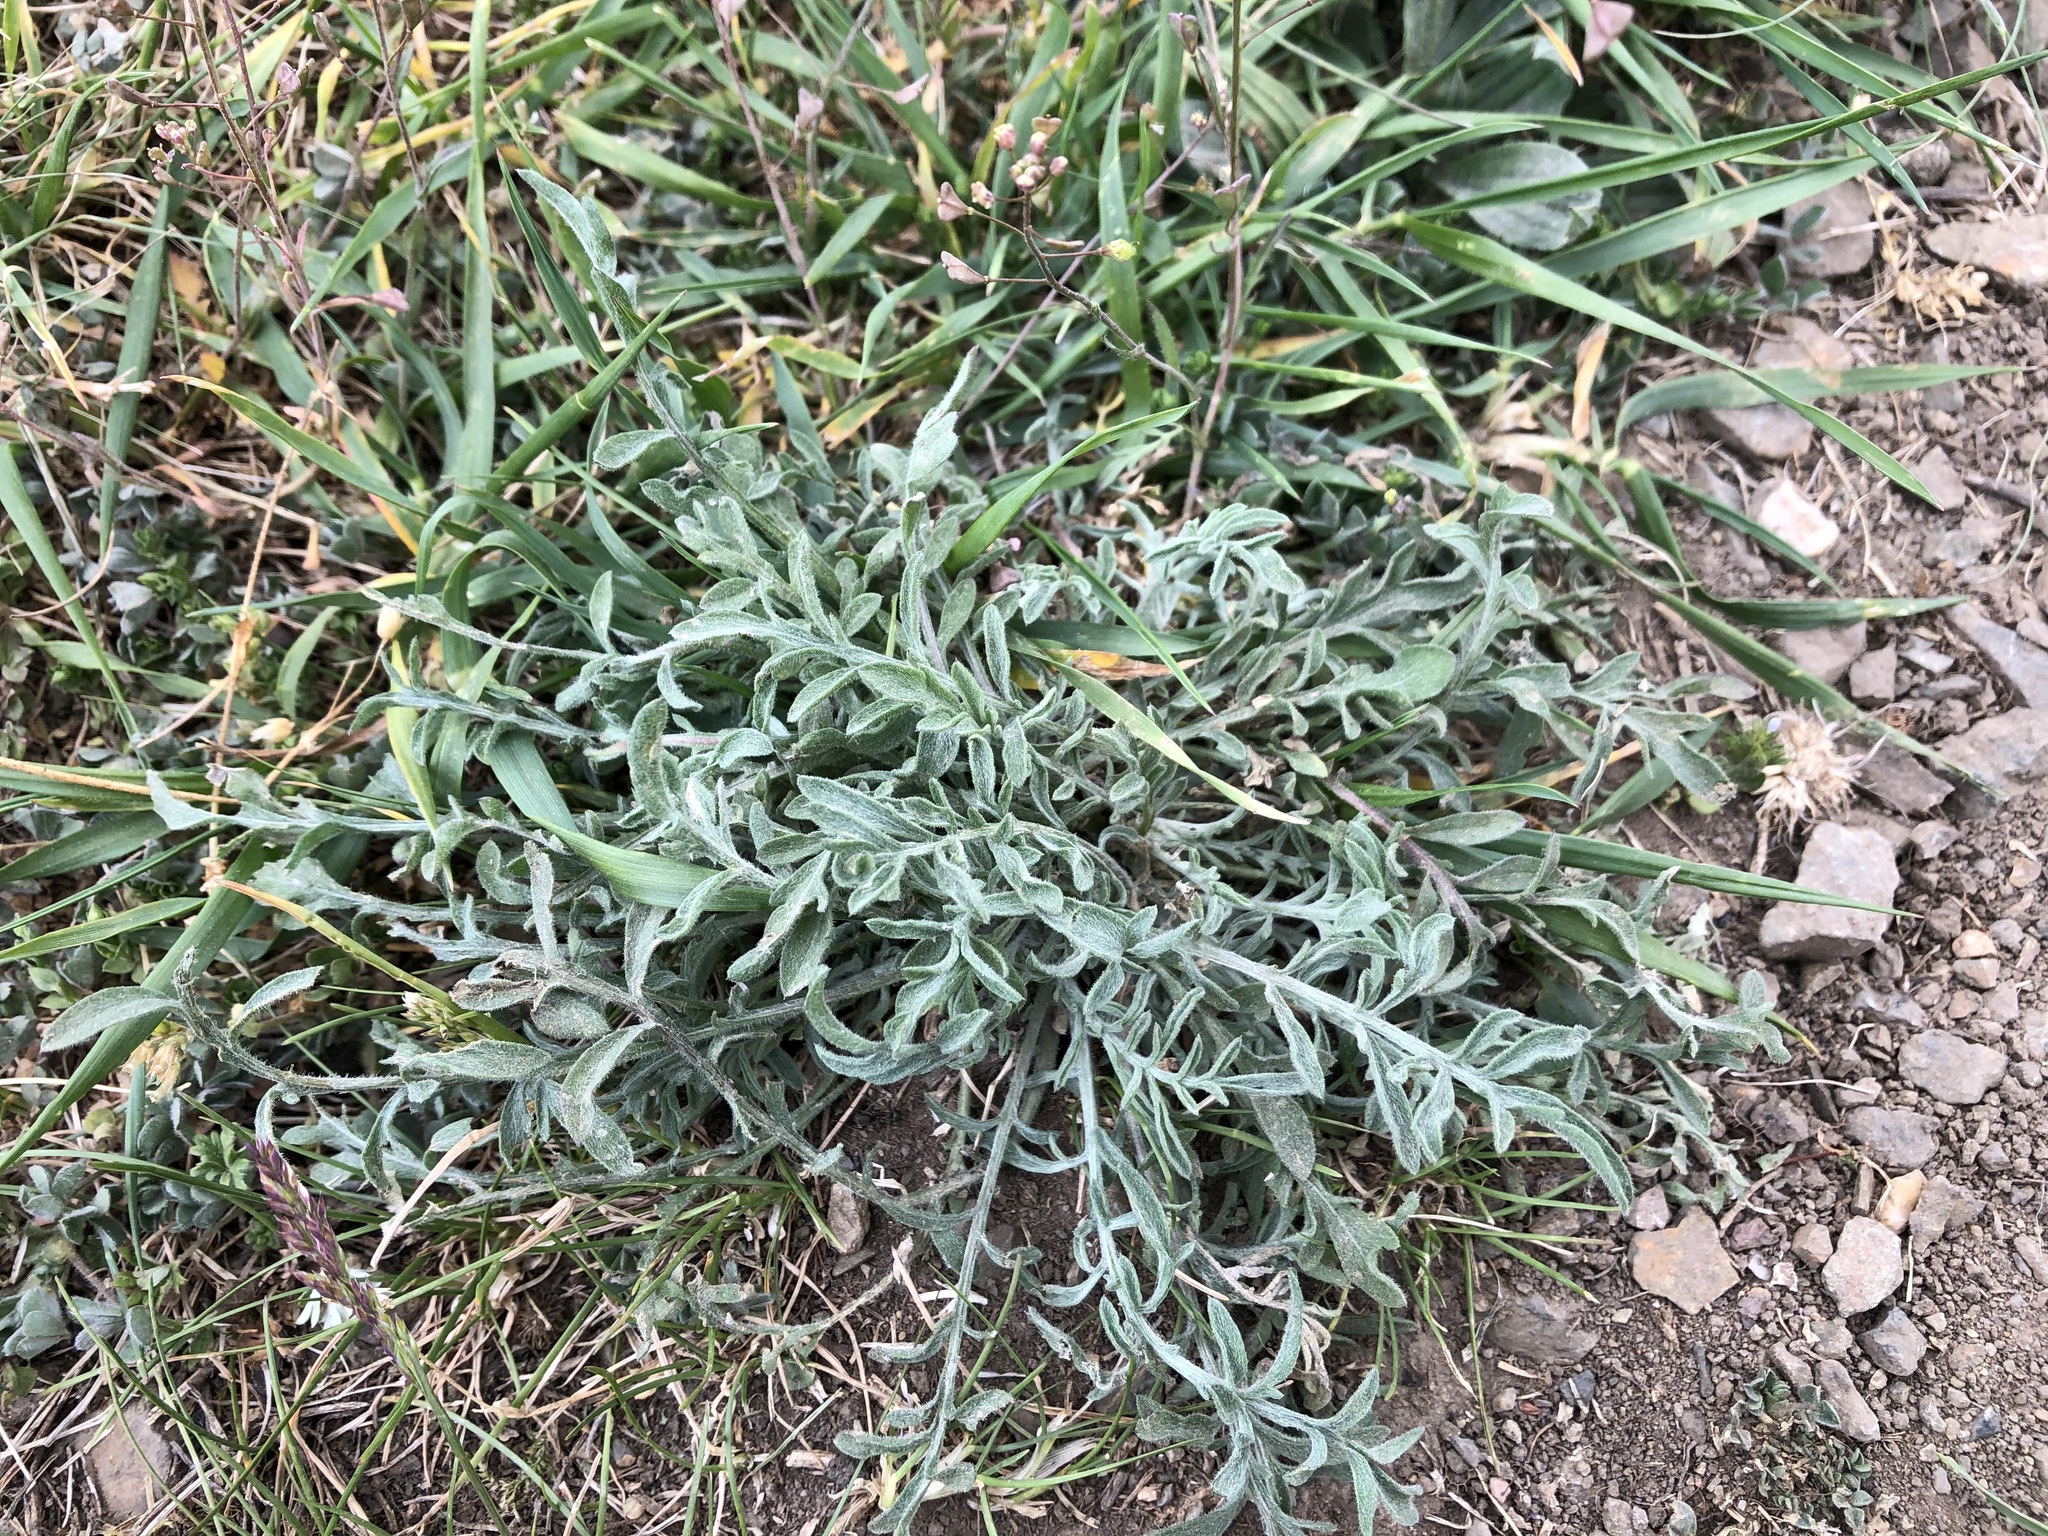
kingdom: Plantae
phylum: Tracheophyta
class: Magnoliopsida
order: Asterales
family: Asteraceae
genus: Centaurea
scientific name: Centaurea stoebe
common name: Spotted knapweed
